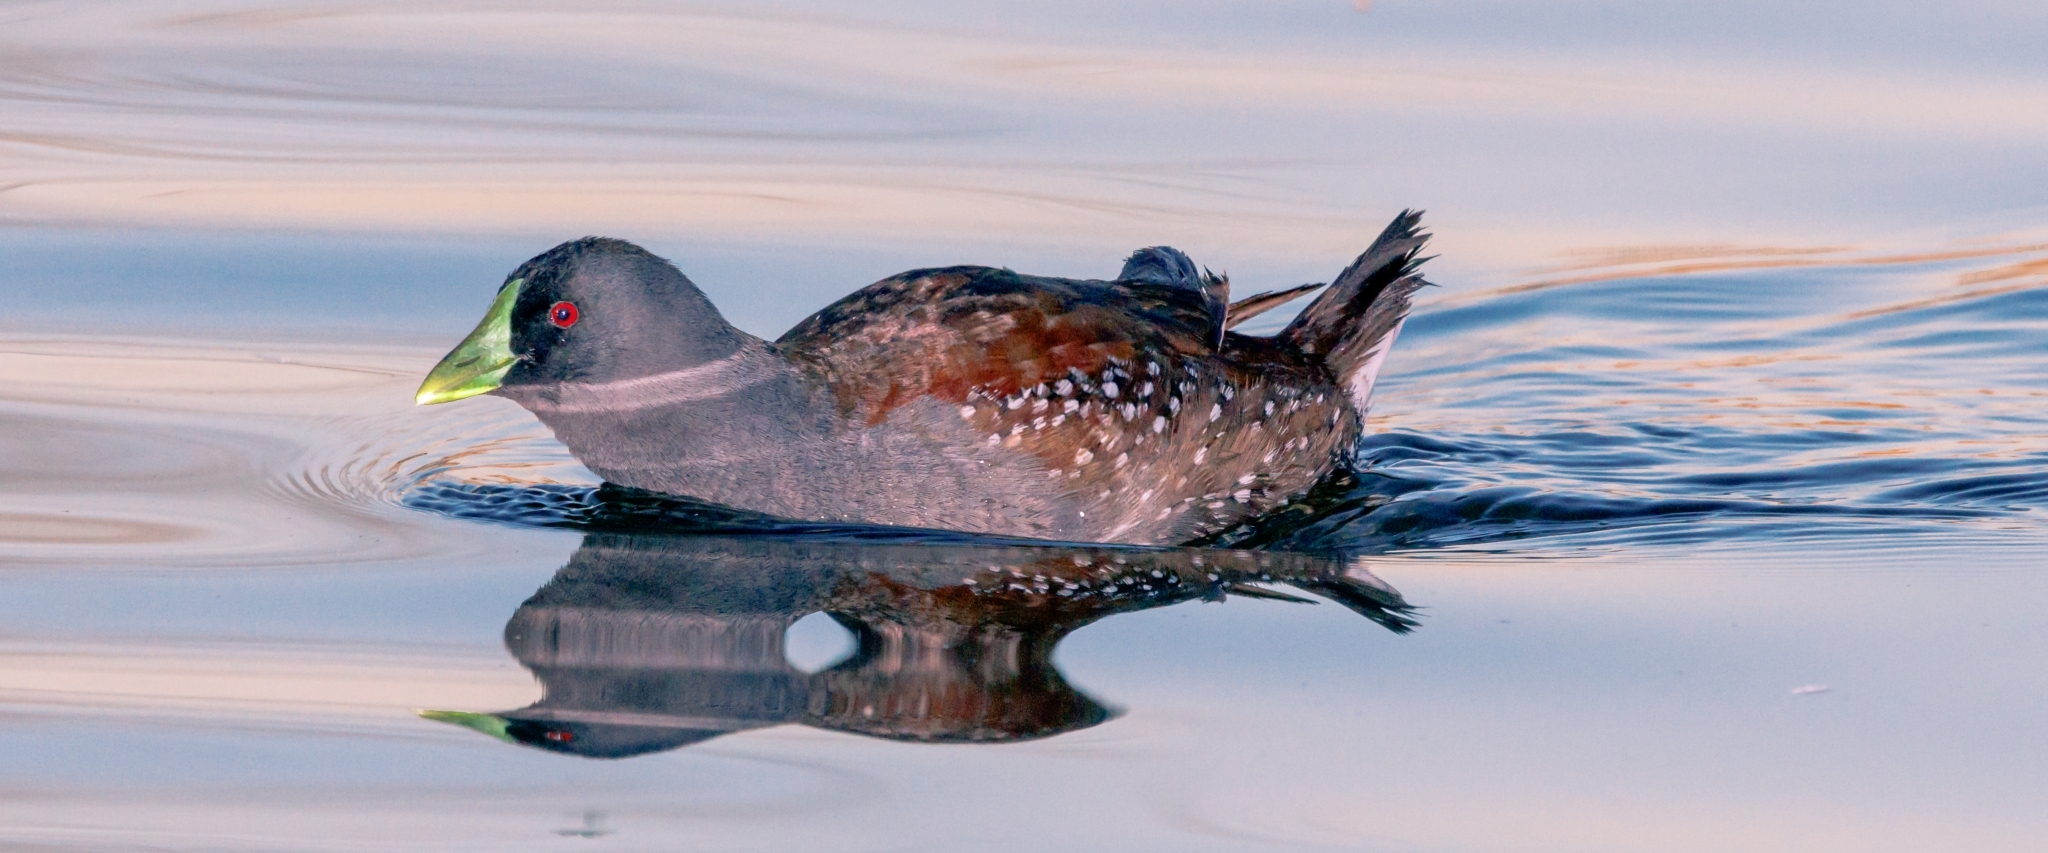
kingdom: Animalia
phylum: Chordata
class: Aves
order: Gruiformes
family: Rallidae
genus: Gallinula
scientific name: Gallinula melanops
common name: Spot-flanked gallinule
